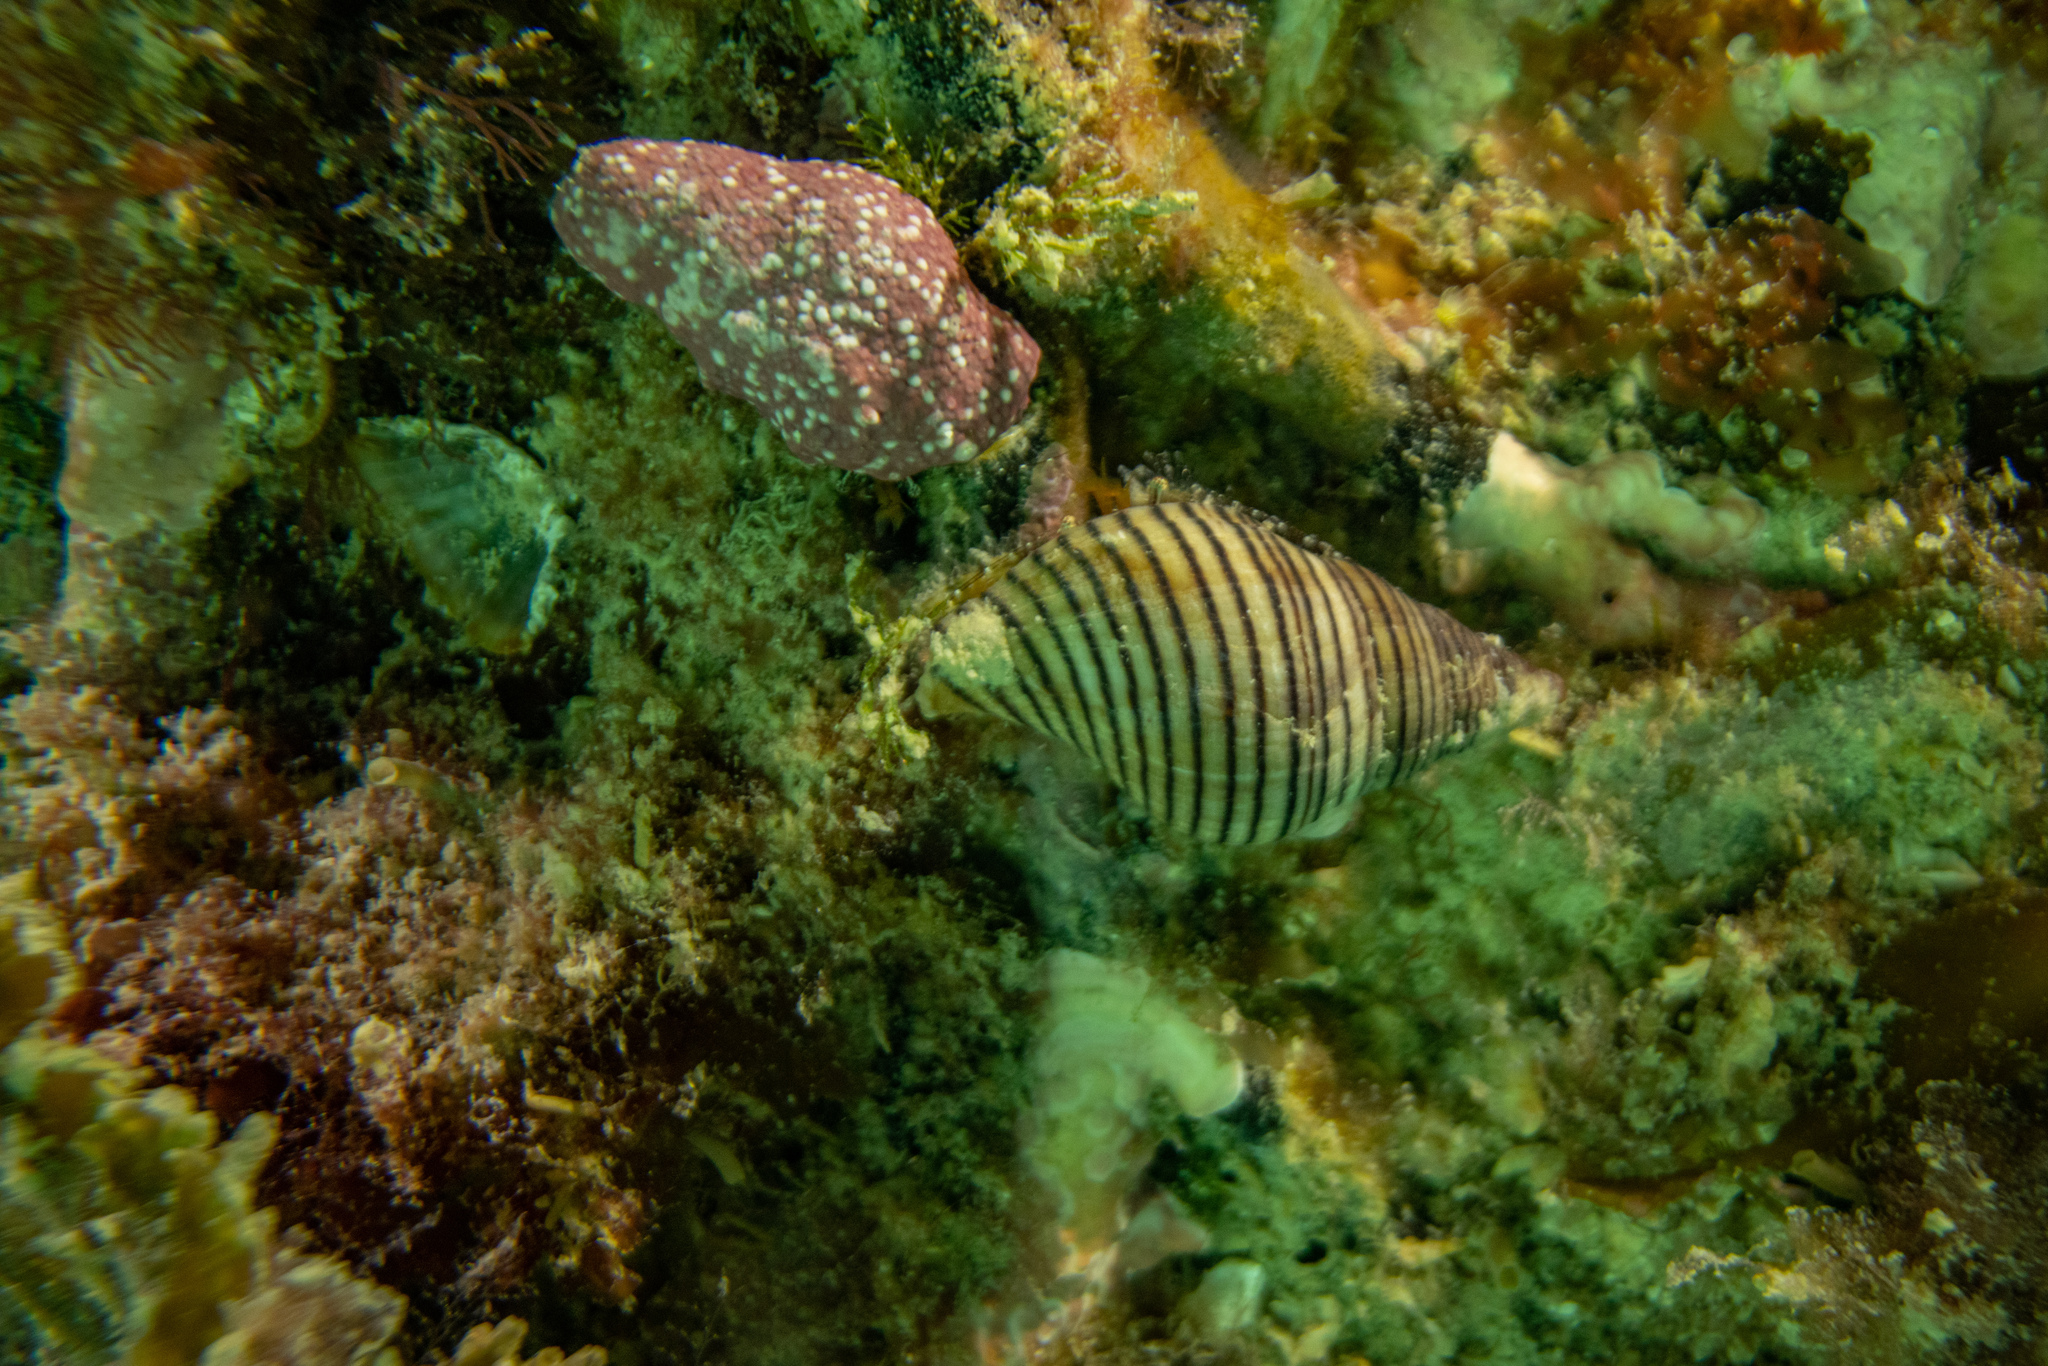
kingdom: Animalia
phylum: Mollusca
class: Gastropoda
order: Neogastropoda
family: Tudiclidae
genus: Buccinulum
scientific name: Buccinulum linea
